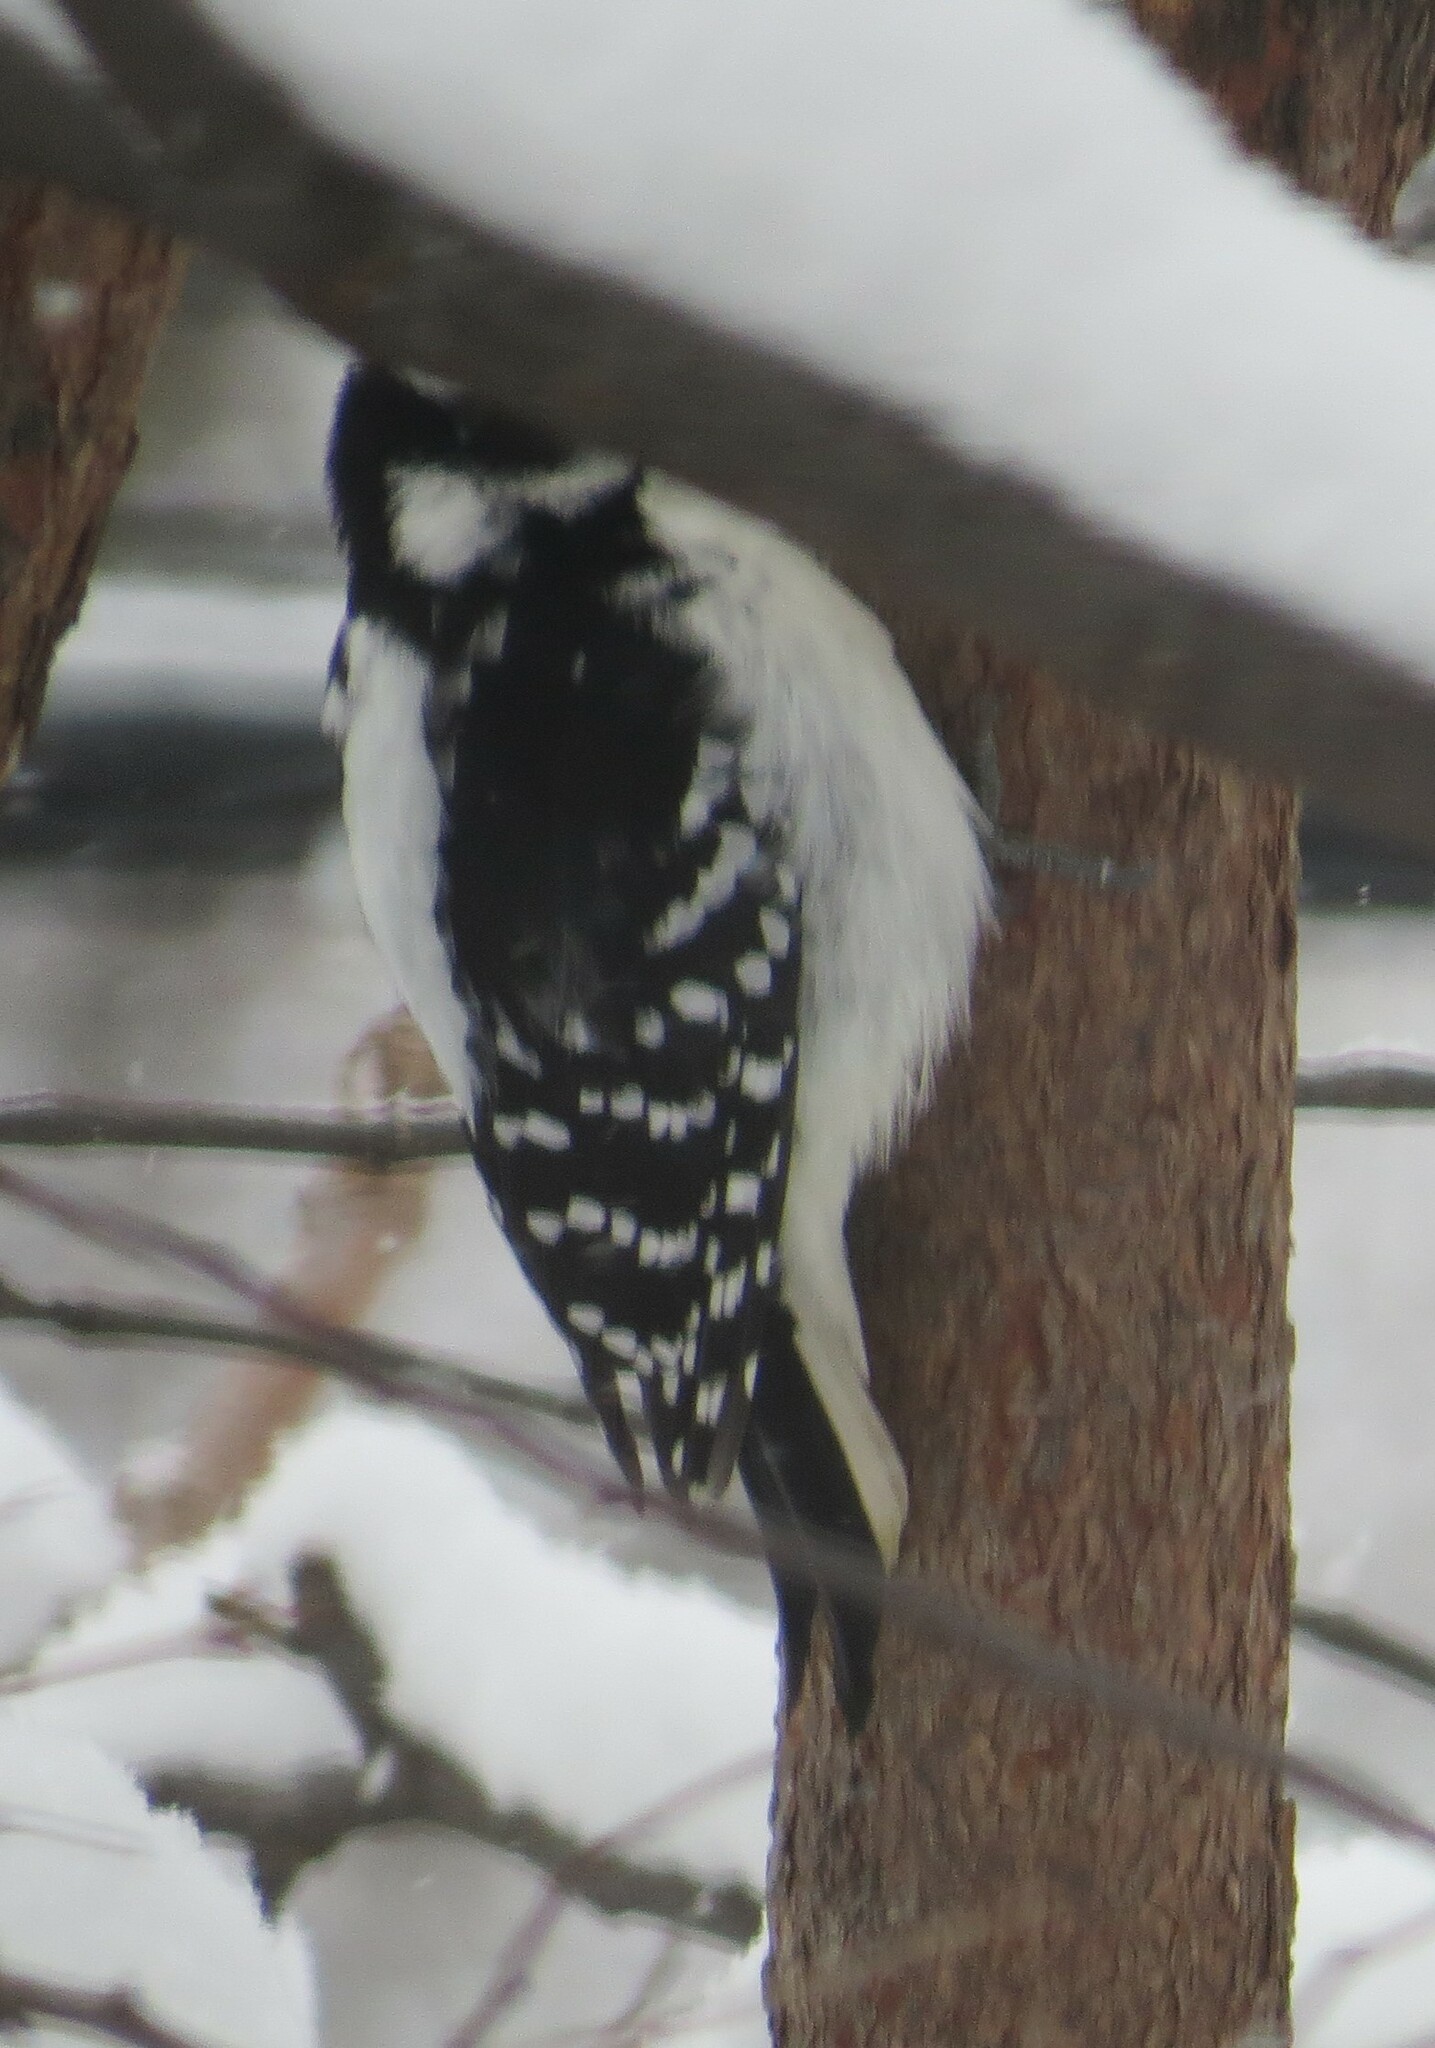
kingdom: Animalia
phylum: Chordata
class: Aves
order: Piciformes
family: Picidae
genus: Leuconotopicus
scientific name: Leuconotopicus villosus
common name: Hairy woodpecker
